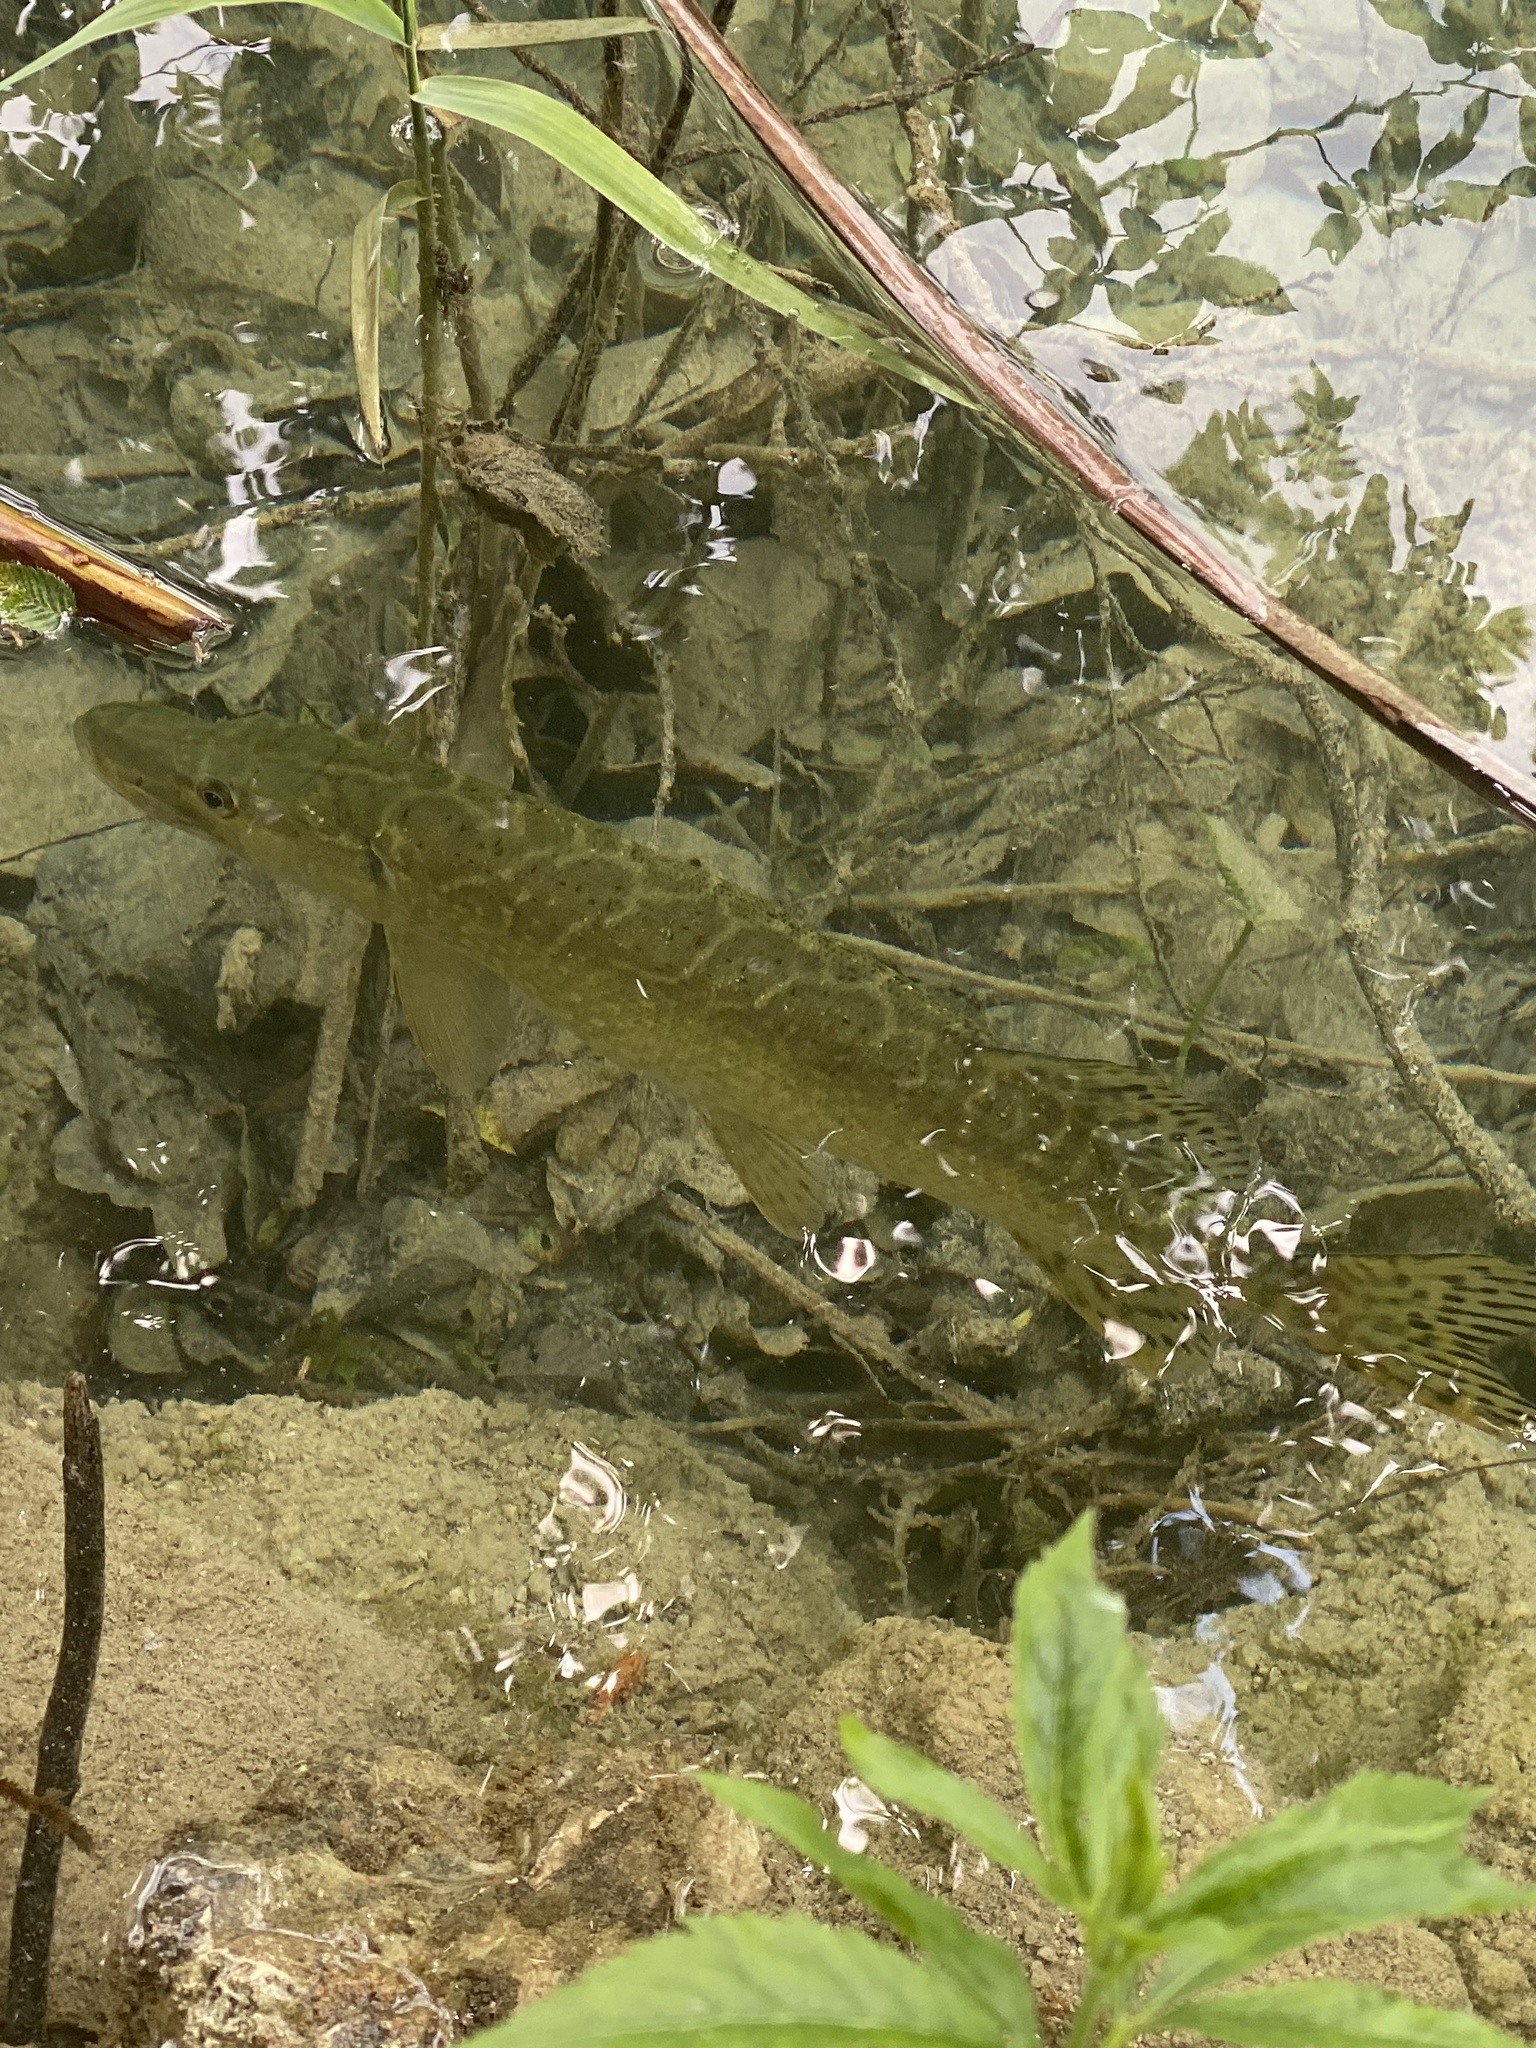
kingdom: Animalia
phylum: Chordata
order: Esociformes
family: Esocidae
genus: Esox
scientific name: Esox lucius
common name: Northern pike
